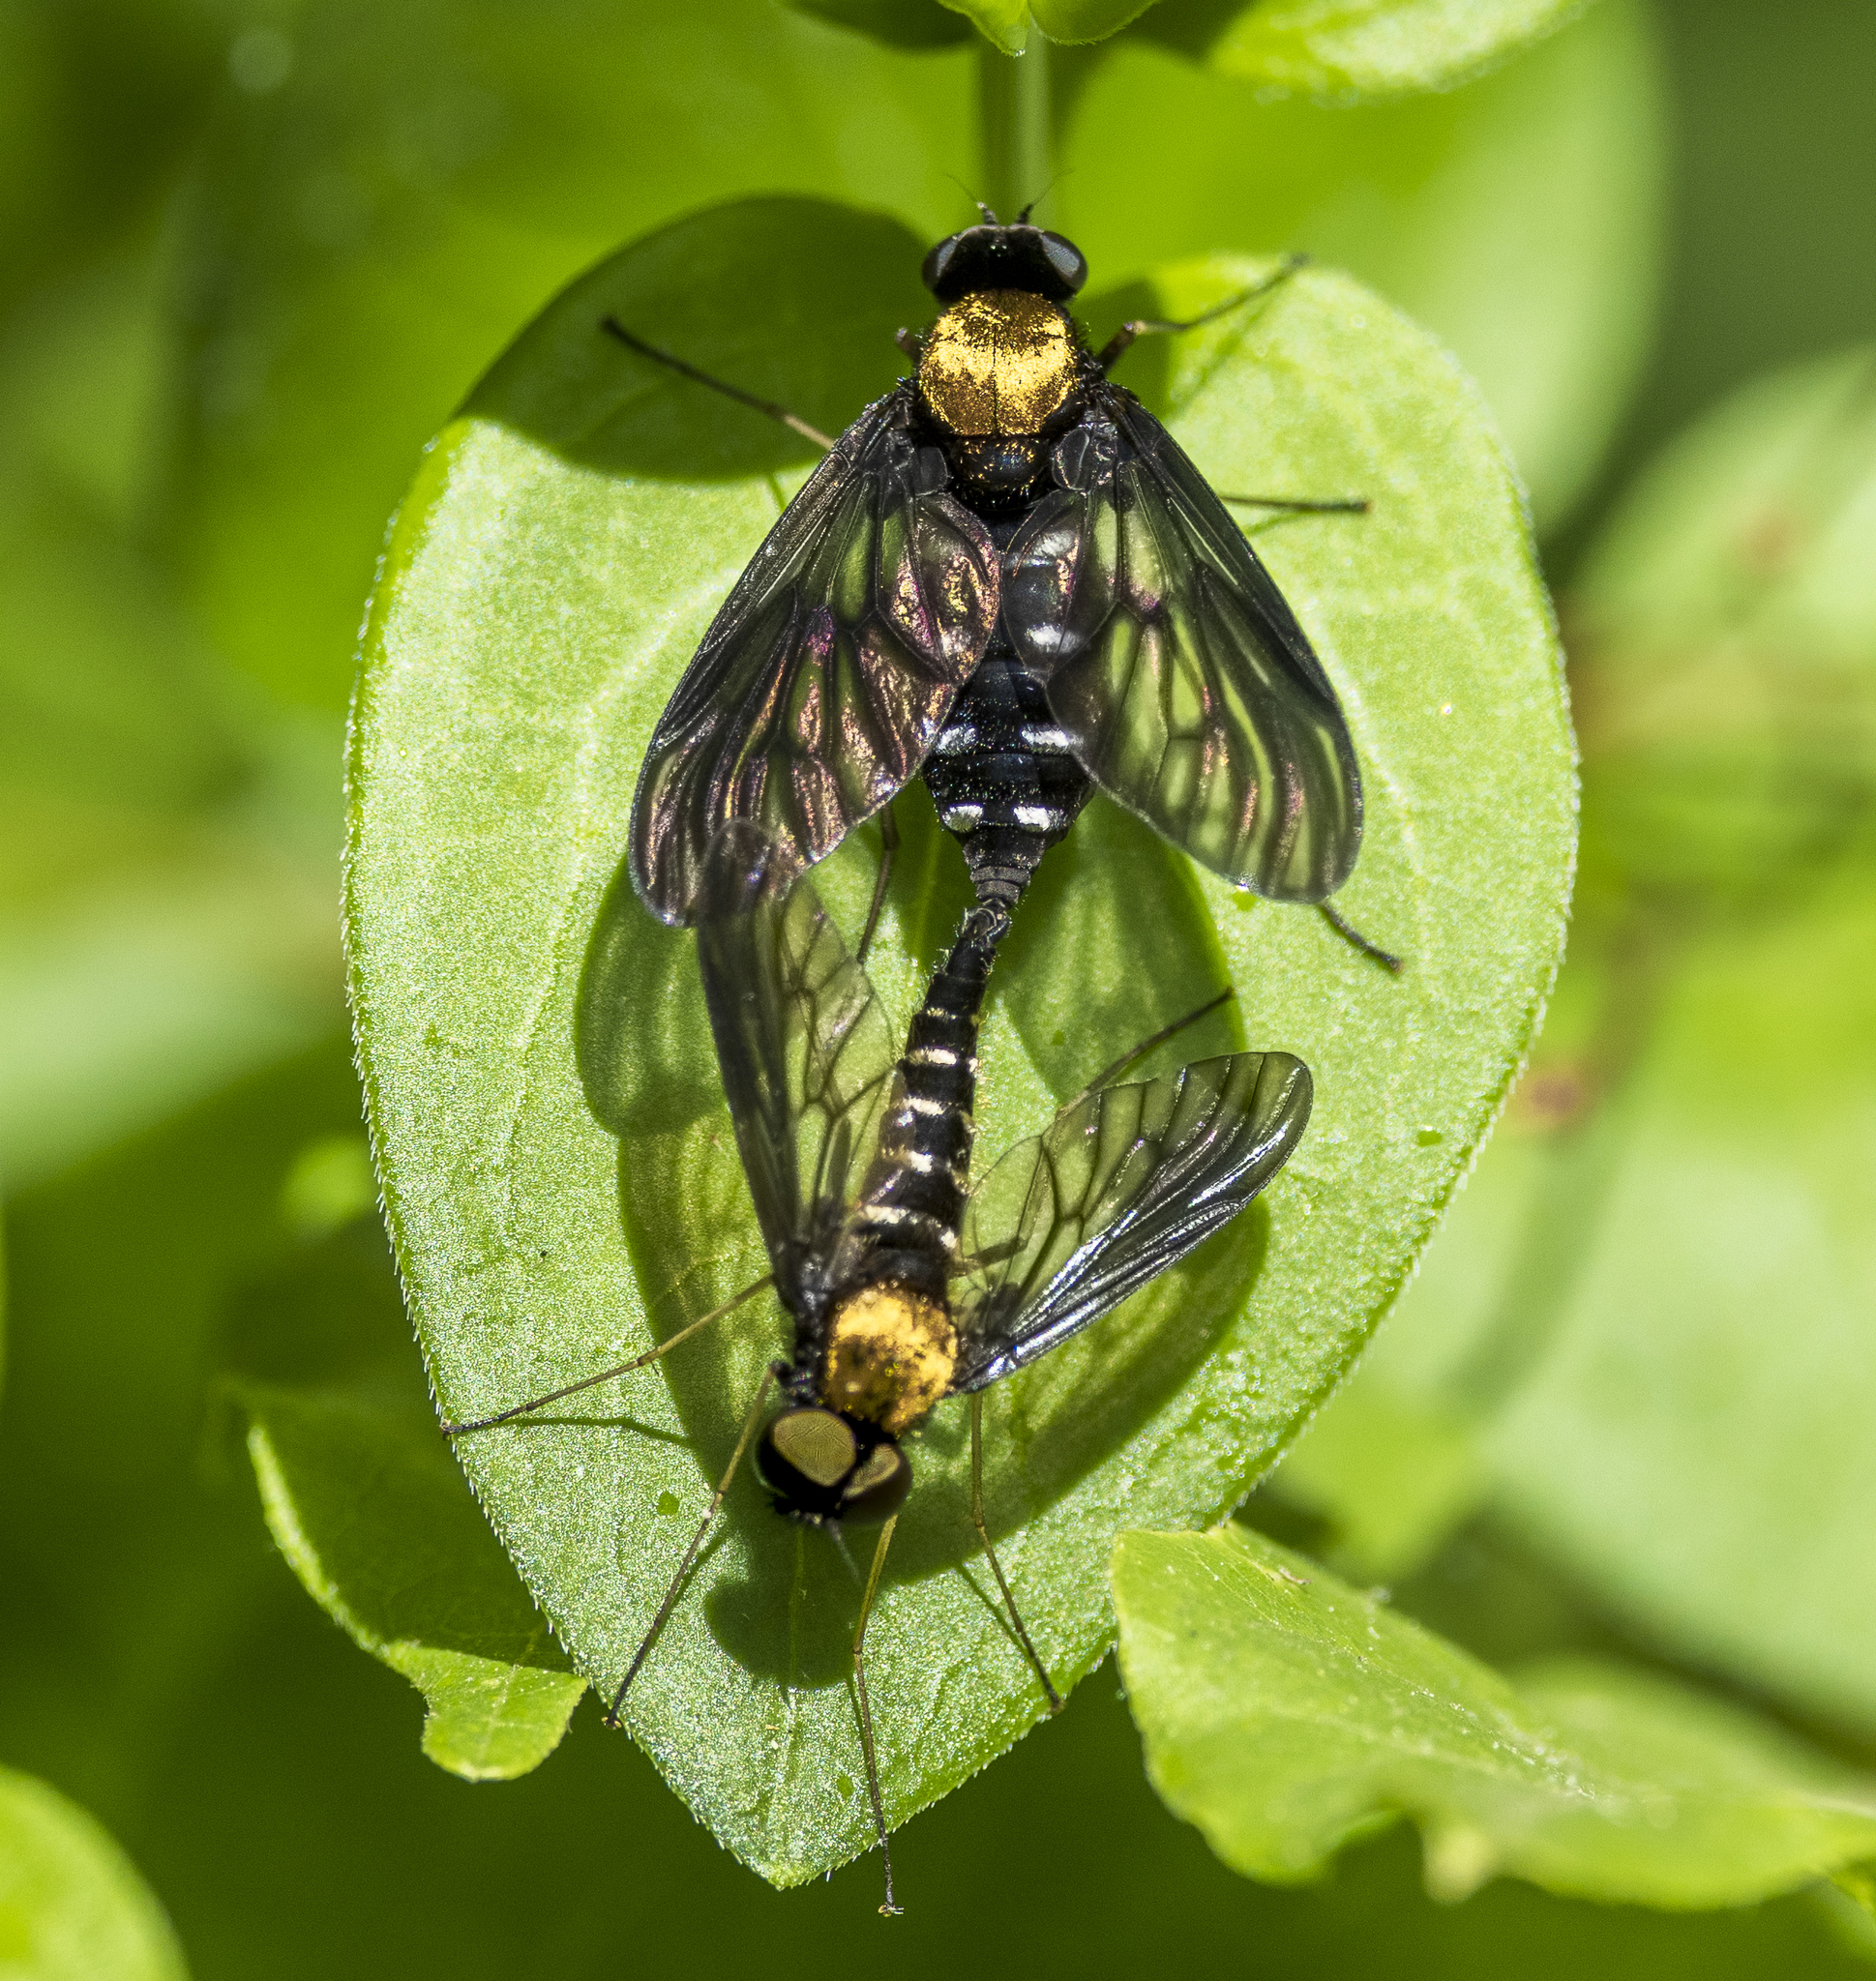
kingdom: Animalia
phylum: Arthropoda
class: Insecta
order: Diptera
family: Rhagionidae
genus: Chrysopilus
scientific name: Chrysopilus thoracicus
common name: Golden-backed snipe fly
